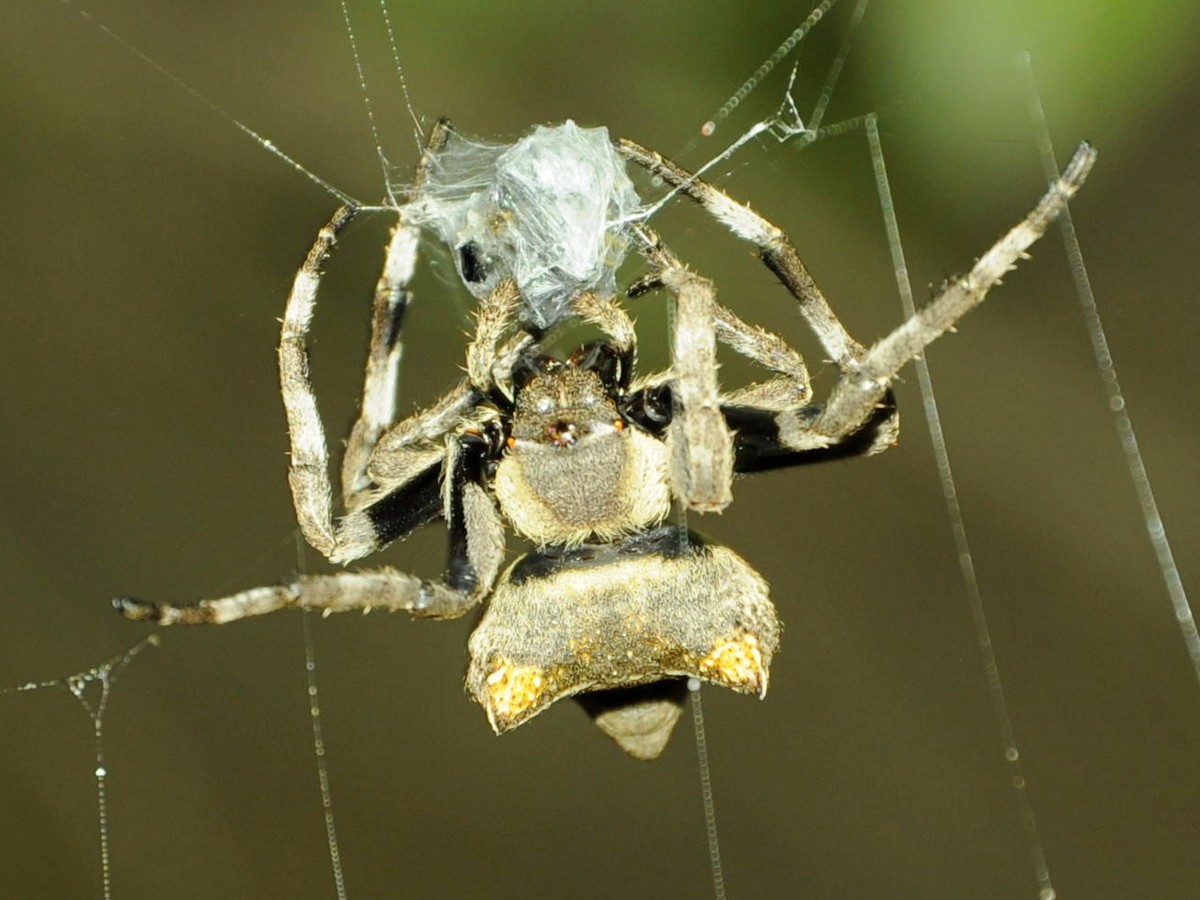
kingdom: Animalia
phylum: Arthropoda
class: Arachnida
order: Araneae
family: Araneidae
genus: Parawixia
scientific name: Parawixia dehaani
